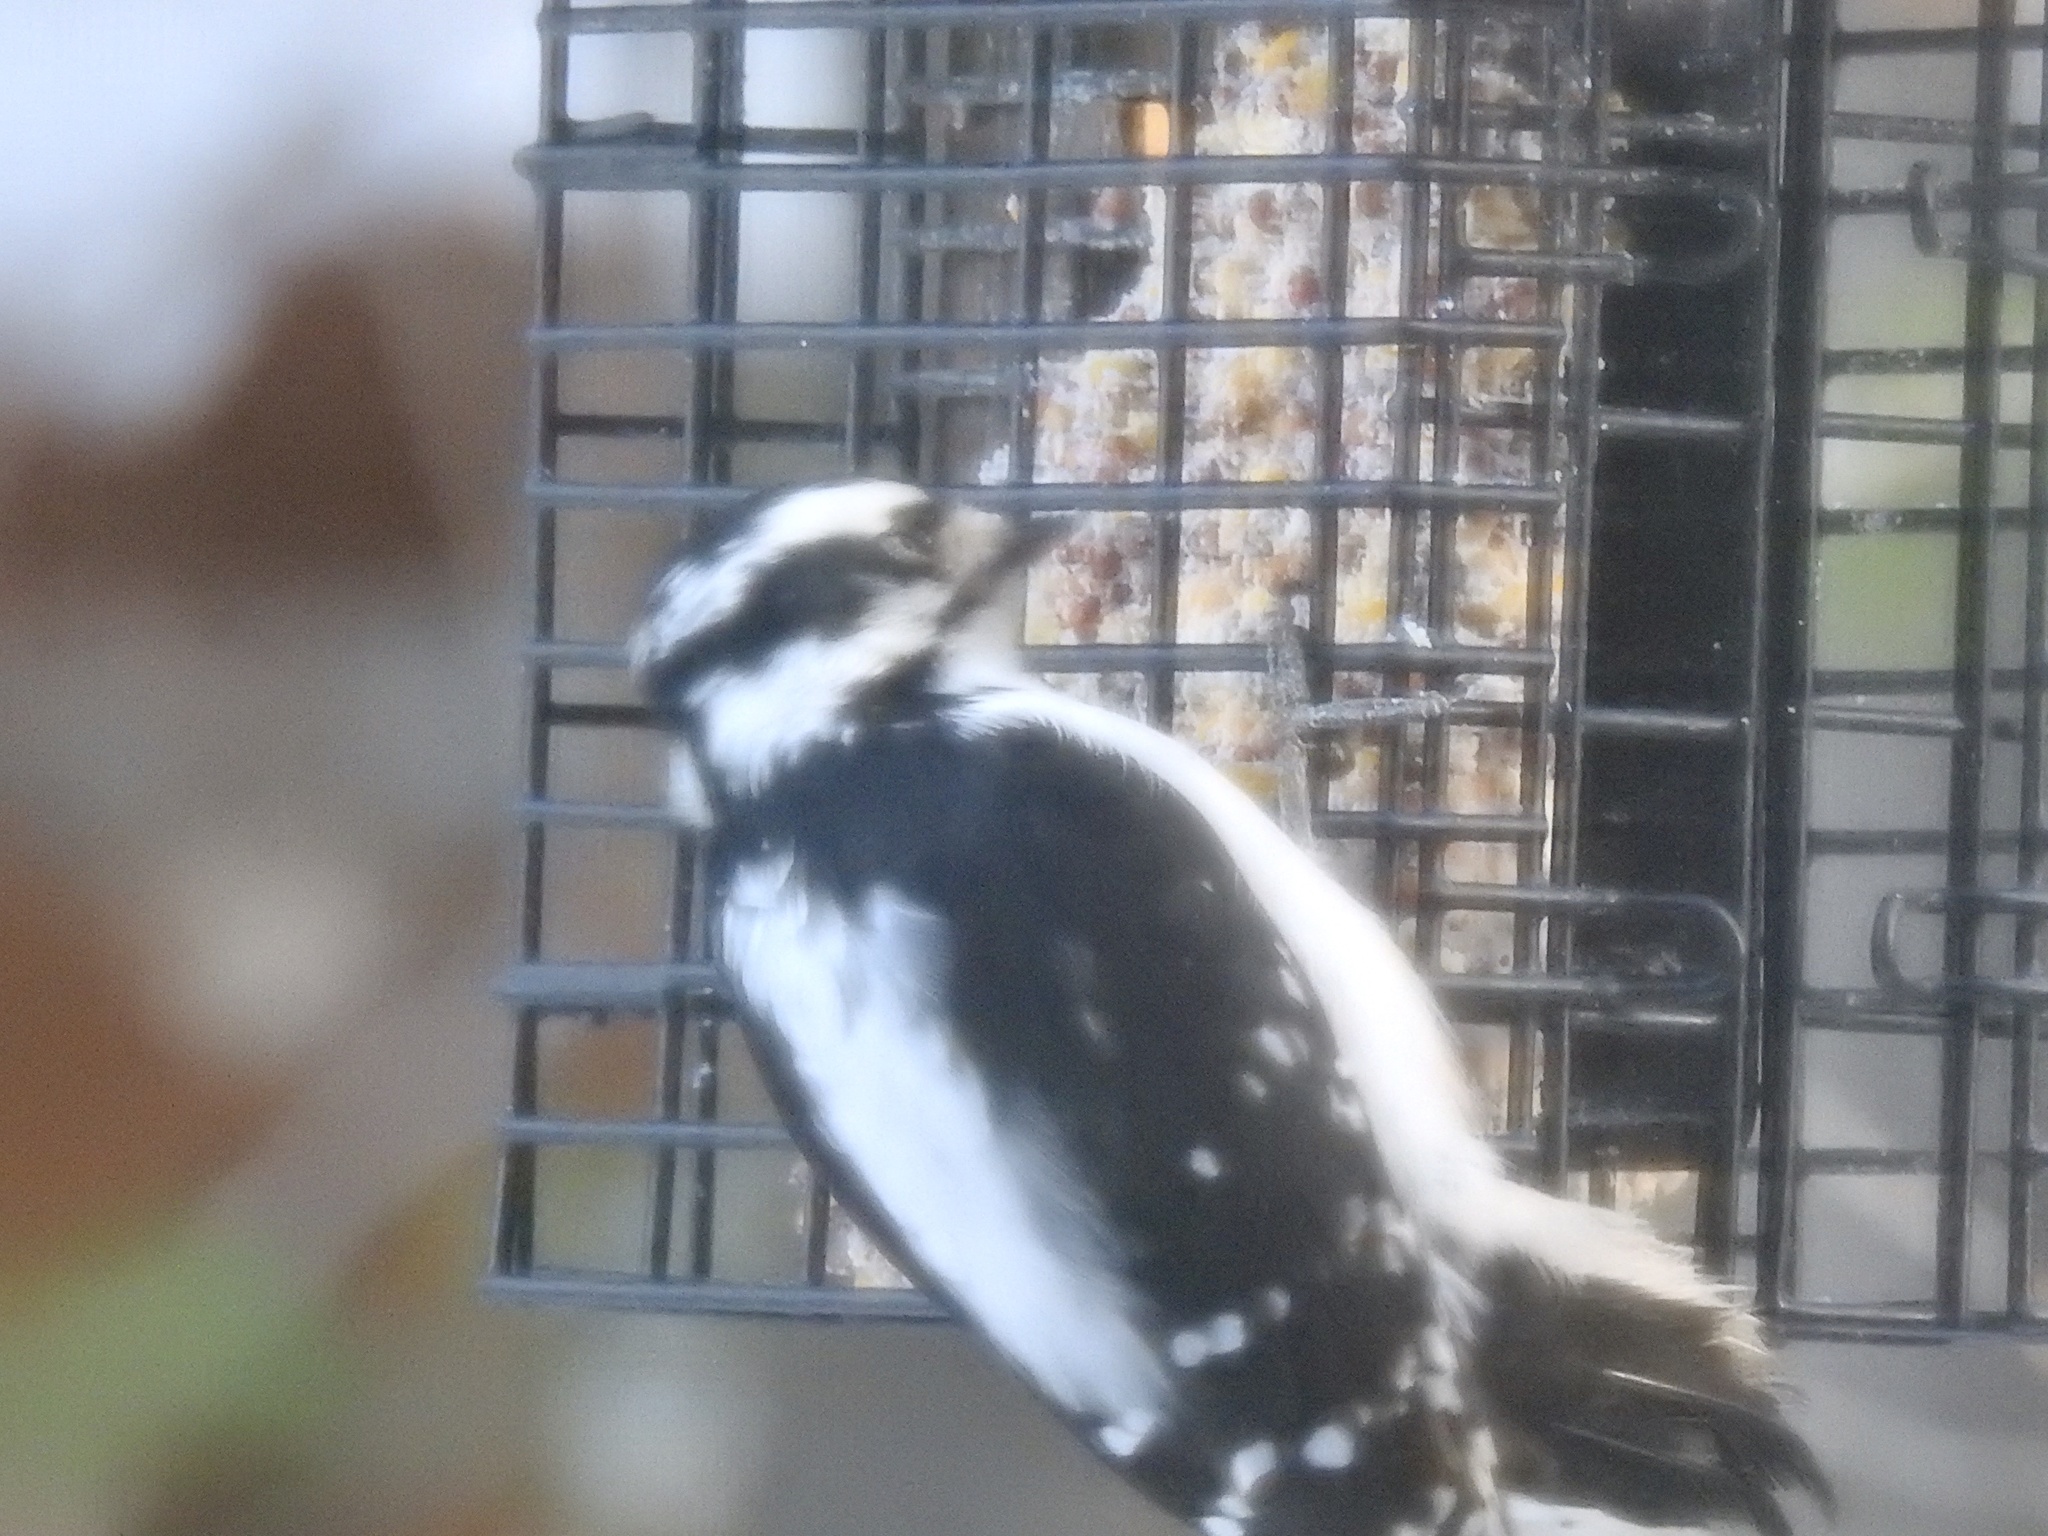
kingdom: Animalia
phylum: Chordata
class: Aves
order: Piciformes
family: Picidae
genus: Dryobates
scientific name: Dryobates pubescens
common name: Downy woodpecker
